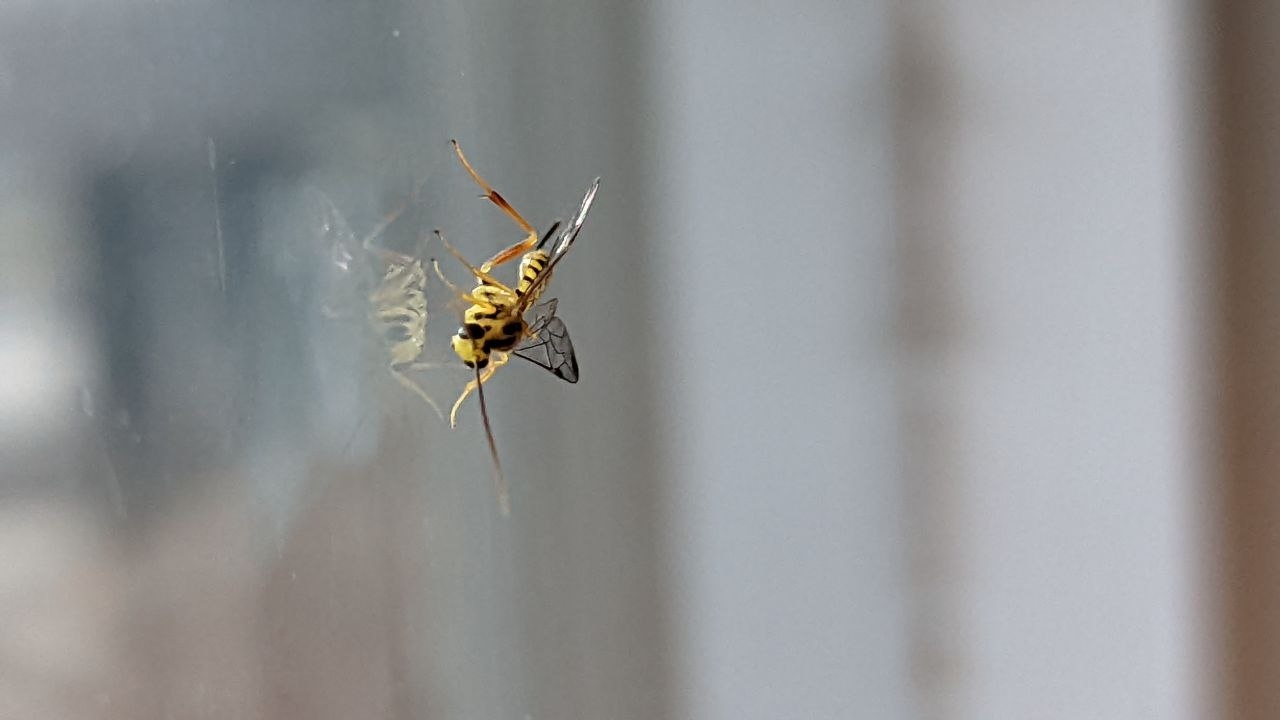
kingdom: Animalia
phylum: Arthropoda
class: Insecta
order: Hymenoptera
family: Ichneumonidae
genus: Lycorina
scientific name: Lycorina glaucomata
